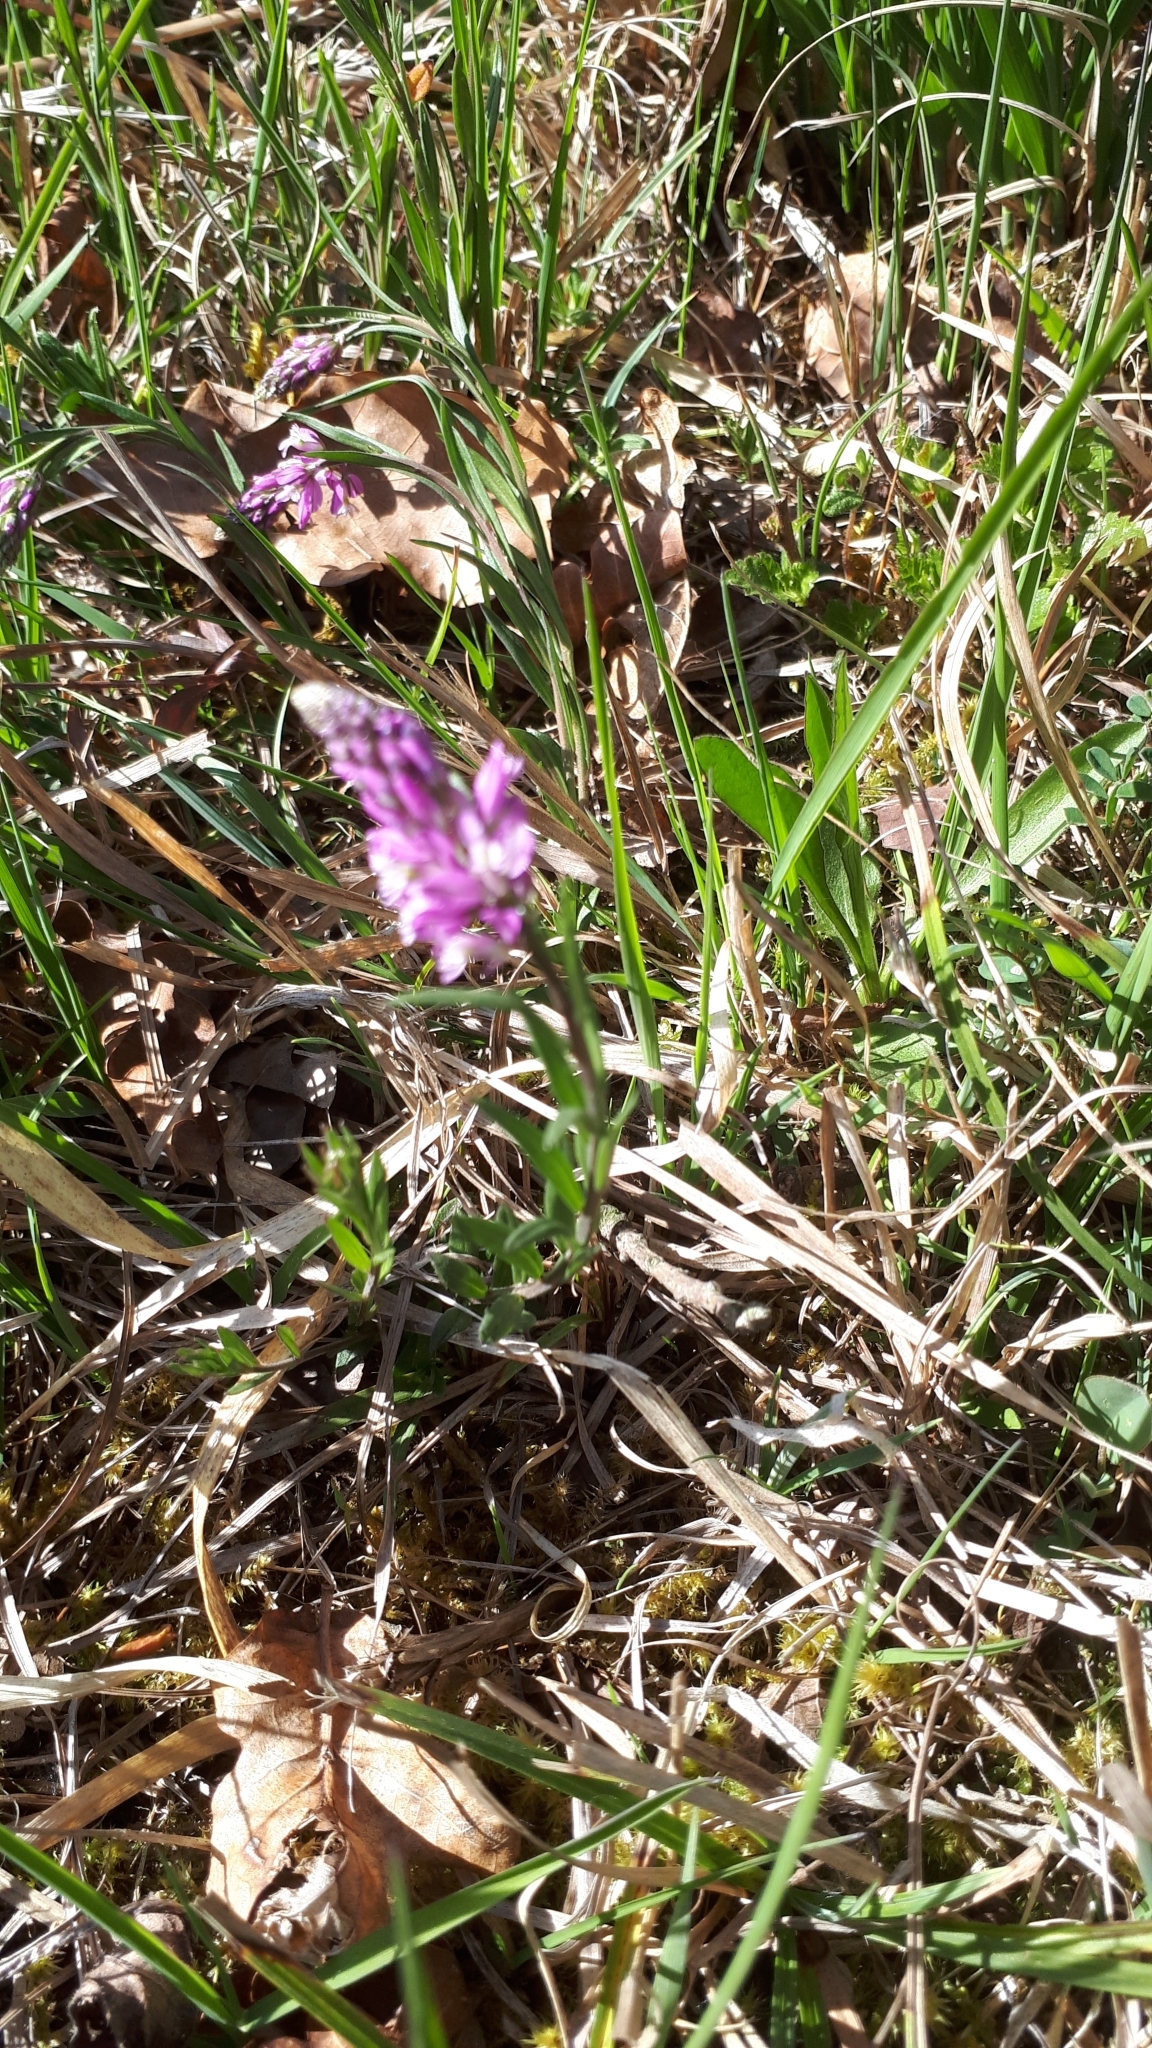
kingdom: Plantae
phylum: Tracheophyta
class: Magnoliopsida
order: Fabales
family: Polygalaceae
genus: Polygala
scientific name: Polygala comosa
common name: Tufted milkwort
